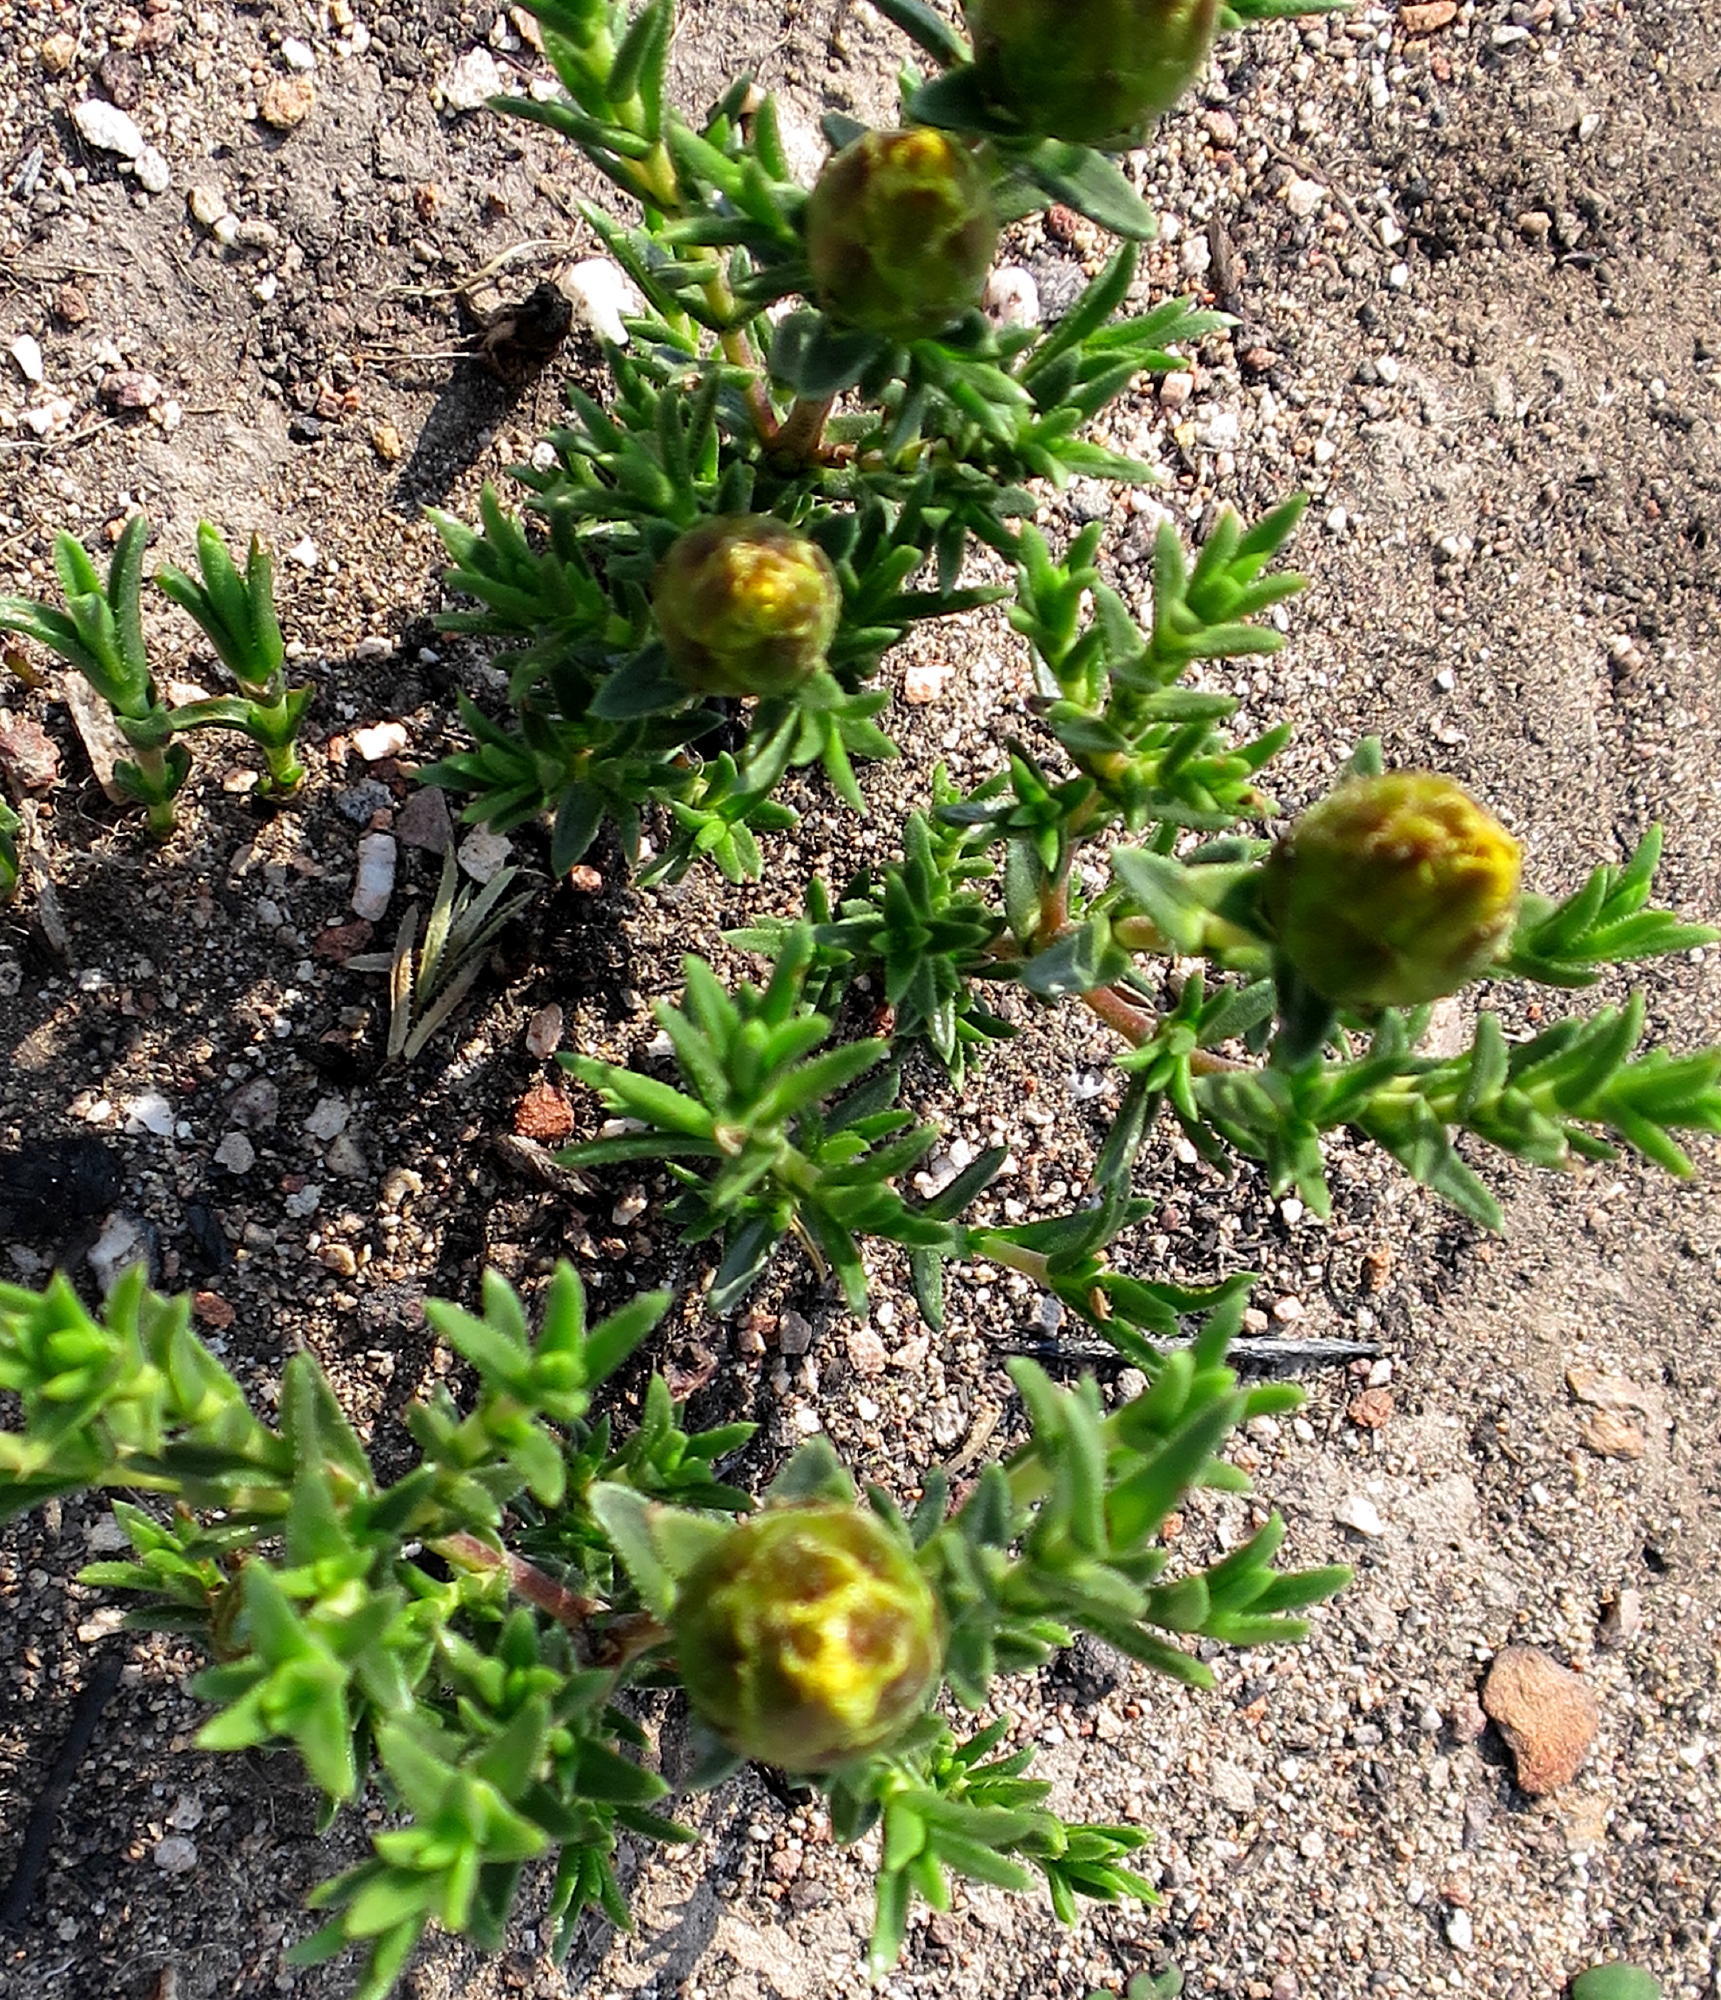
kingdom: Plantae
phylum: Tracheophyta
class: Magnoliopsida
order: Asterales
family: Asteraceae
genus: Pteronia
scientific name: Pteronia elongata
